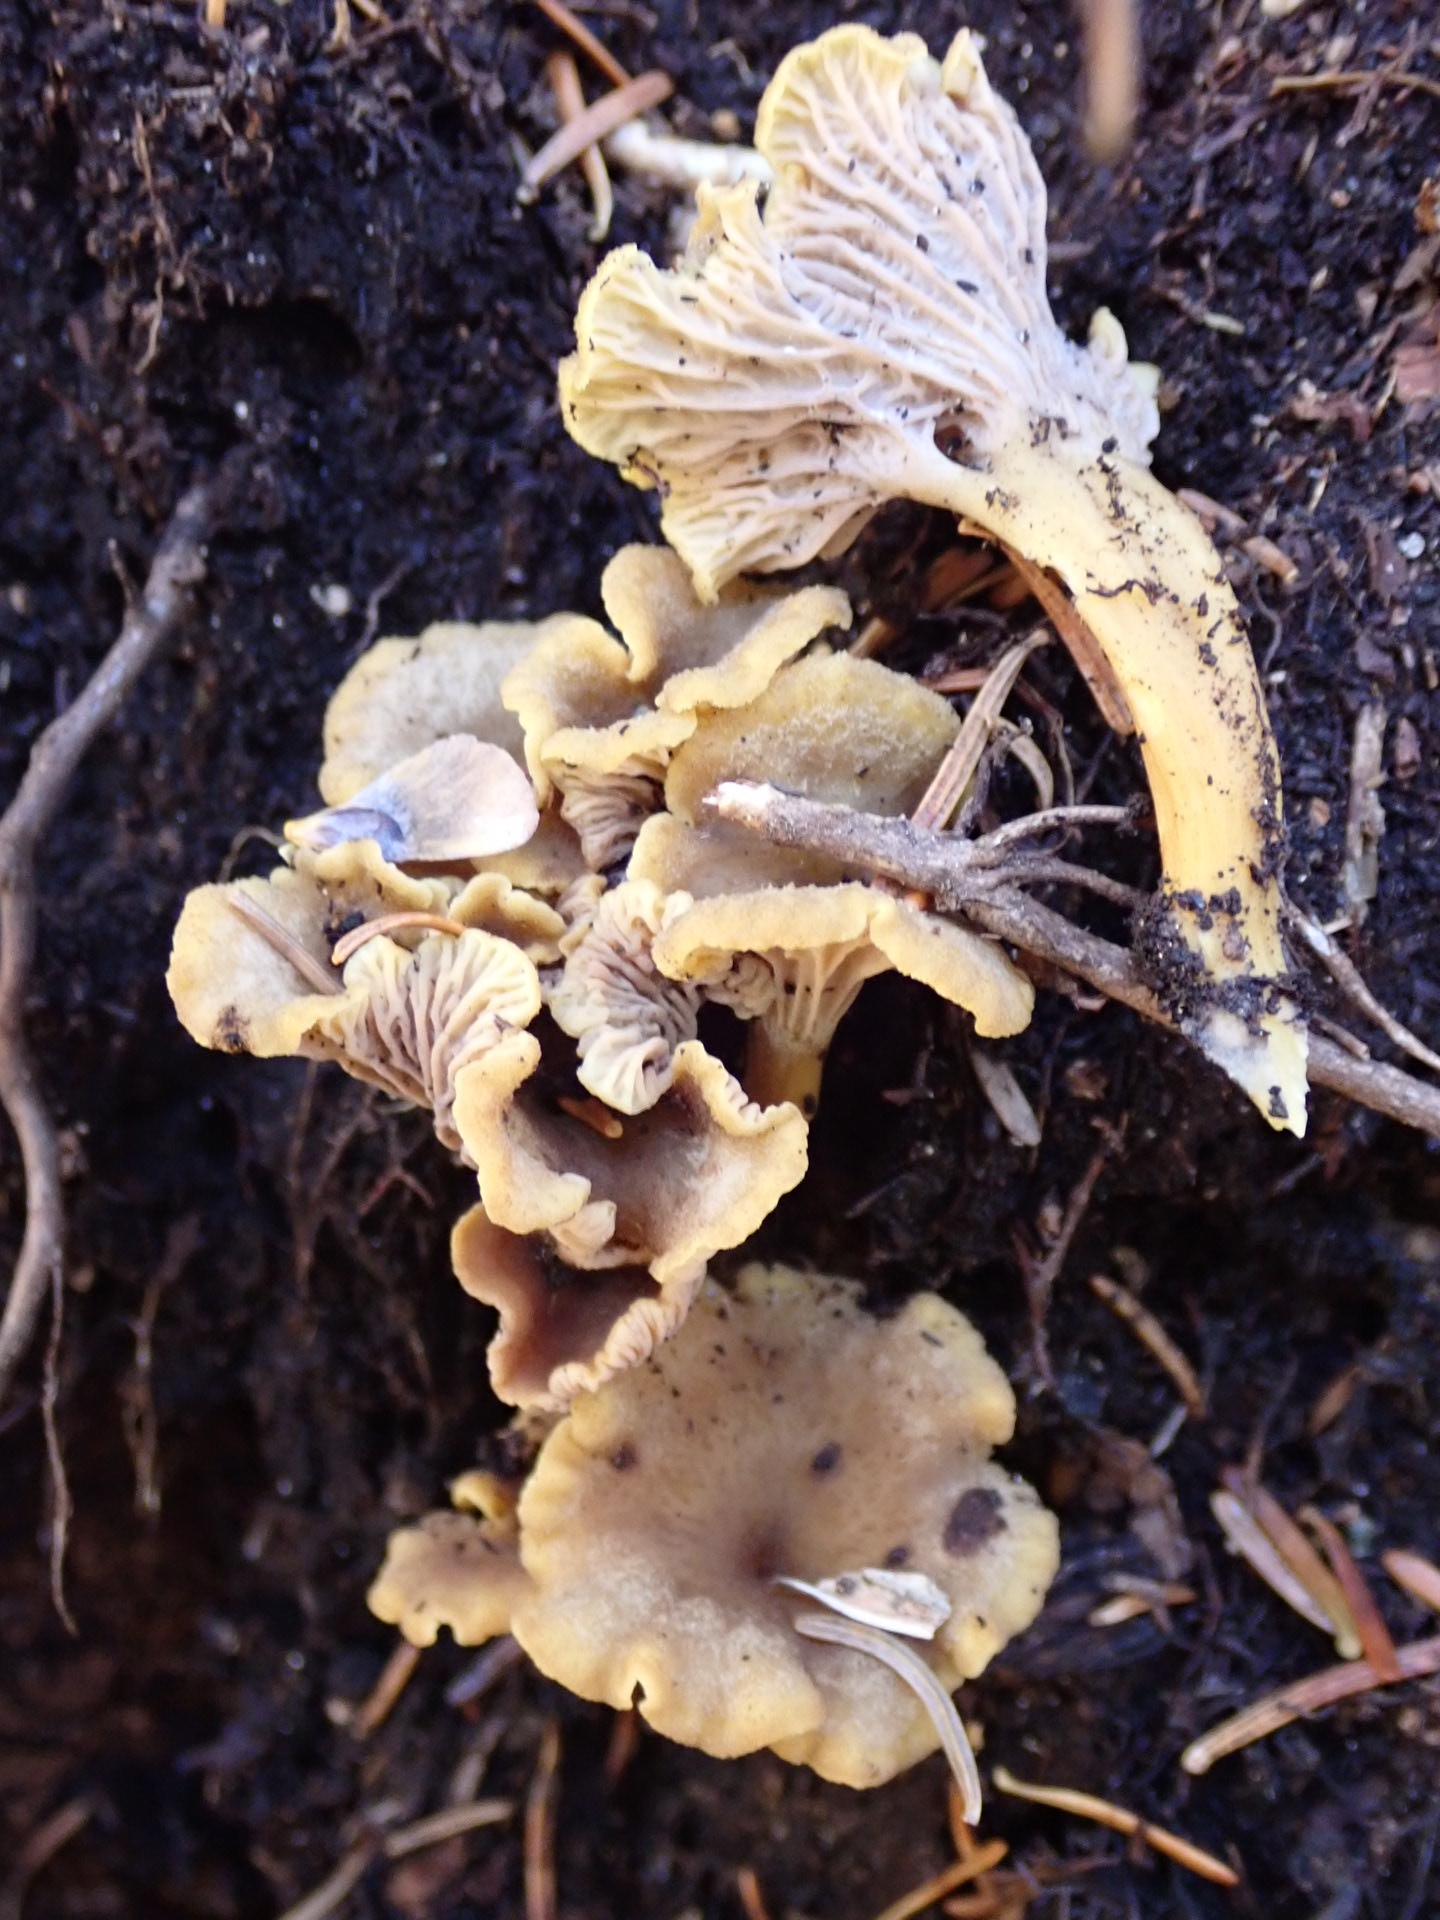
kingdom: Fungi
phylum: Basidiomycota
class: Agaricomycetes
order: Cantharellales
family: Hydnaceae
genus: Craterellus
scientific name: Craterellus tubaeformis
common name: Yellowfoot
